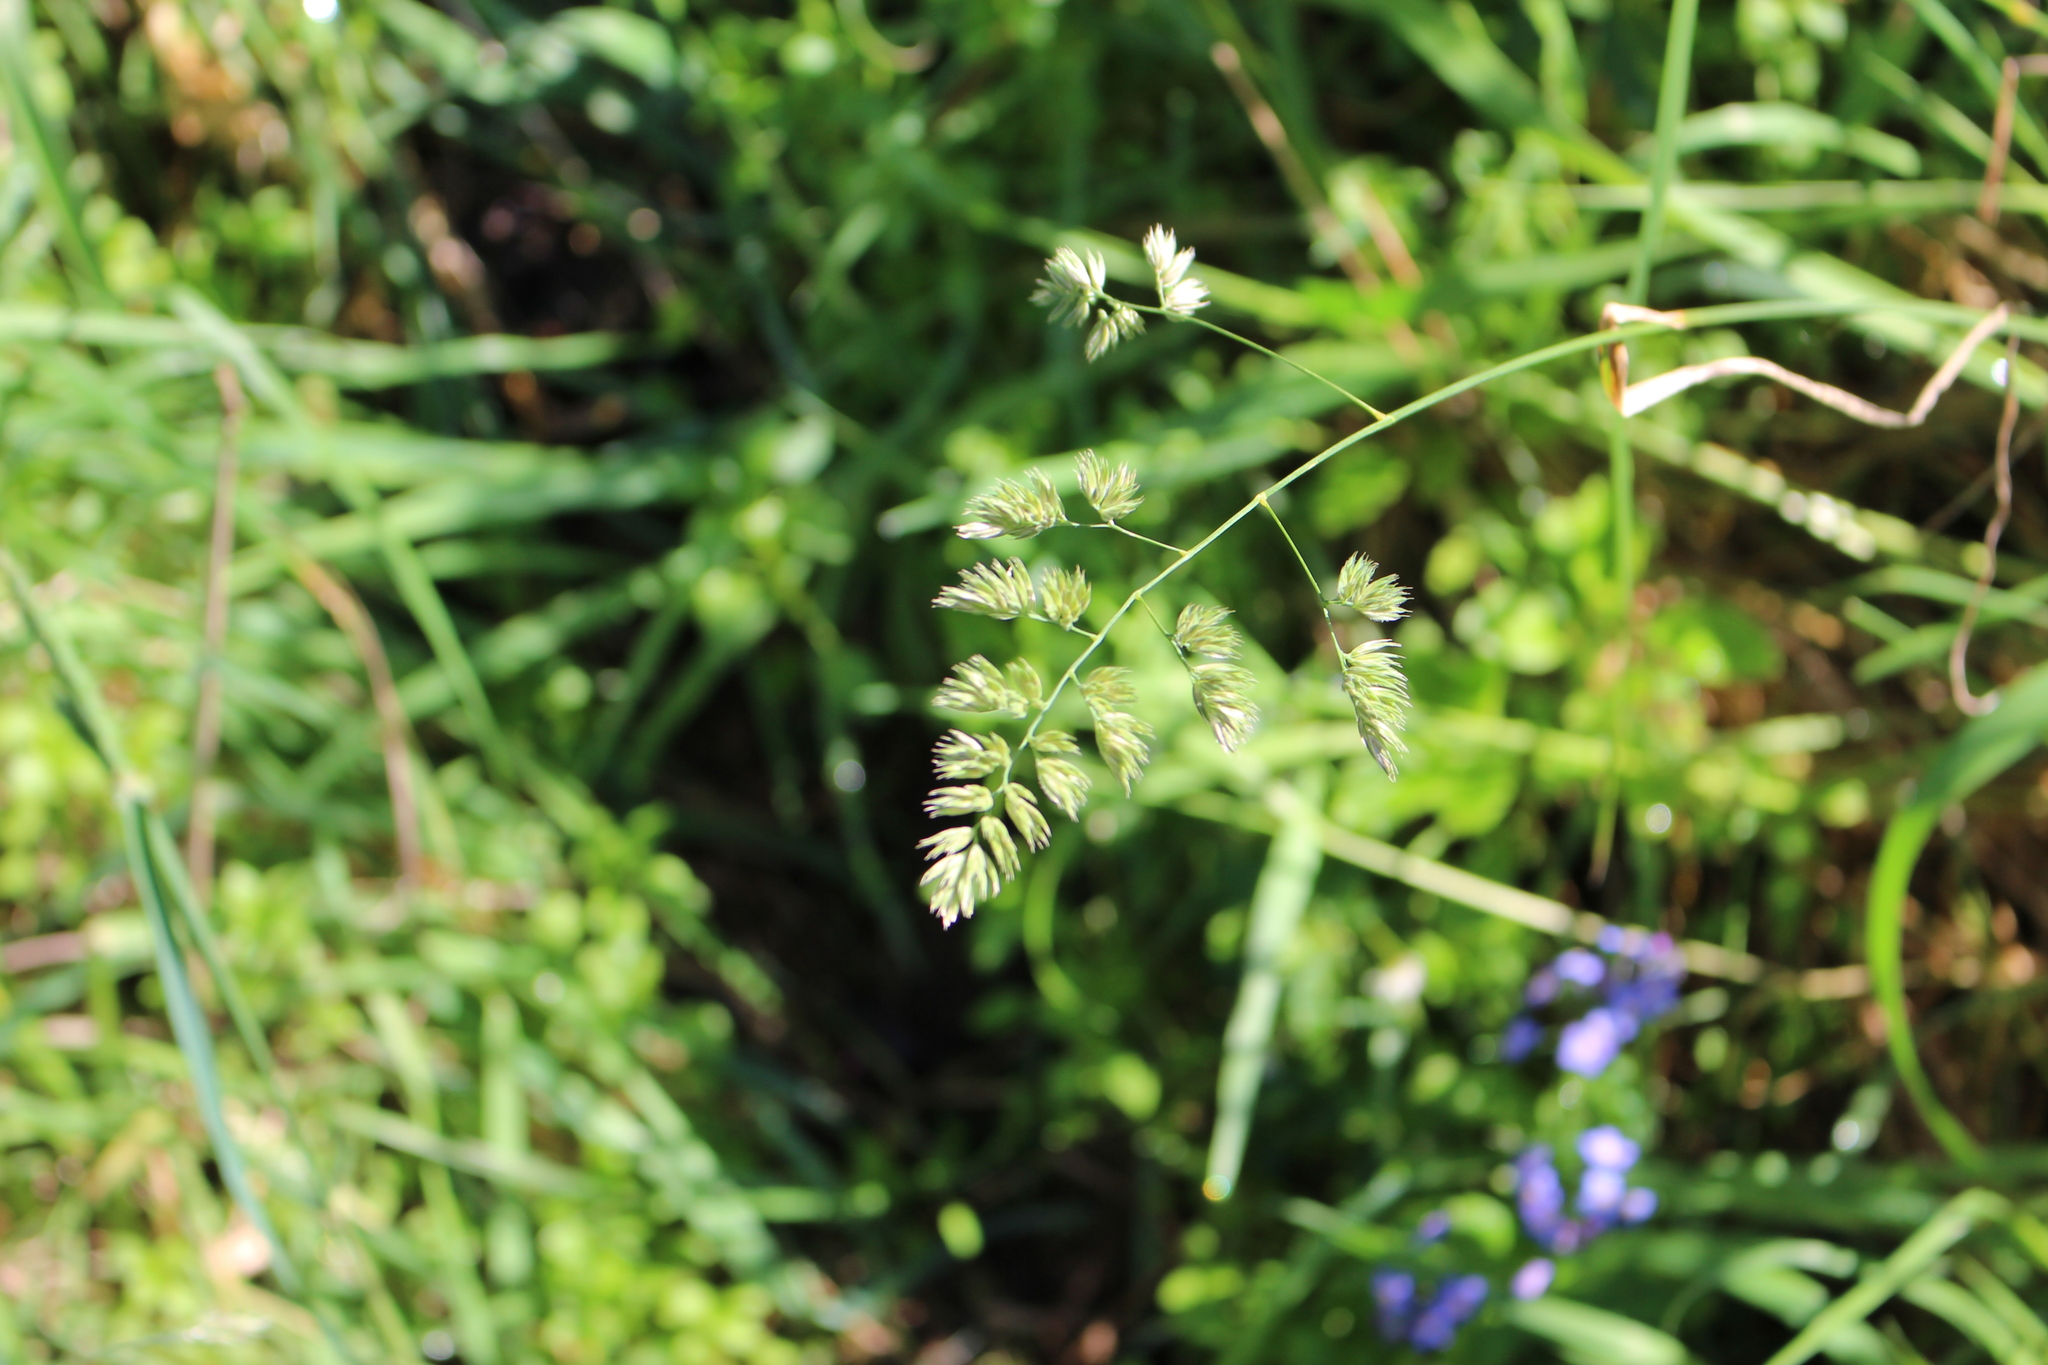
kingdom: Plantae
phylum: Tracheophyta
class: Liliopsida
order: Poales
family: Poaceae
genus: Dactylis
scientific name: Dactylis glomerata
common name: Orchardgrass
